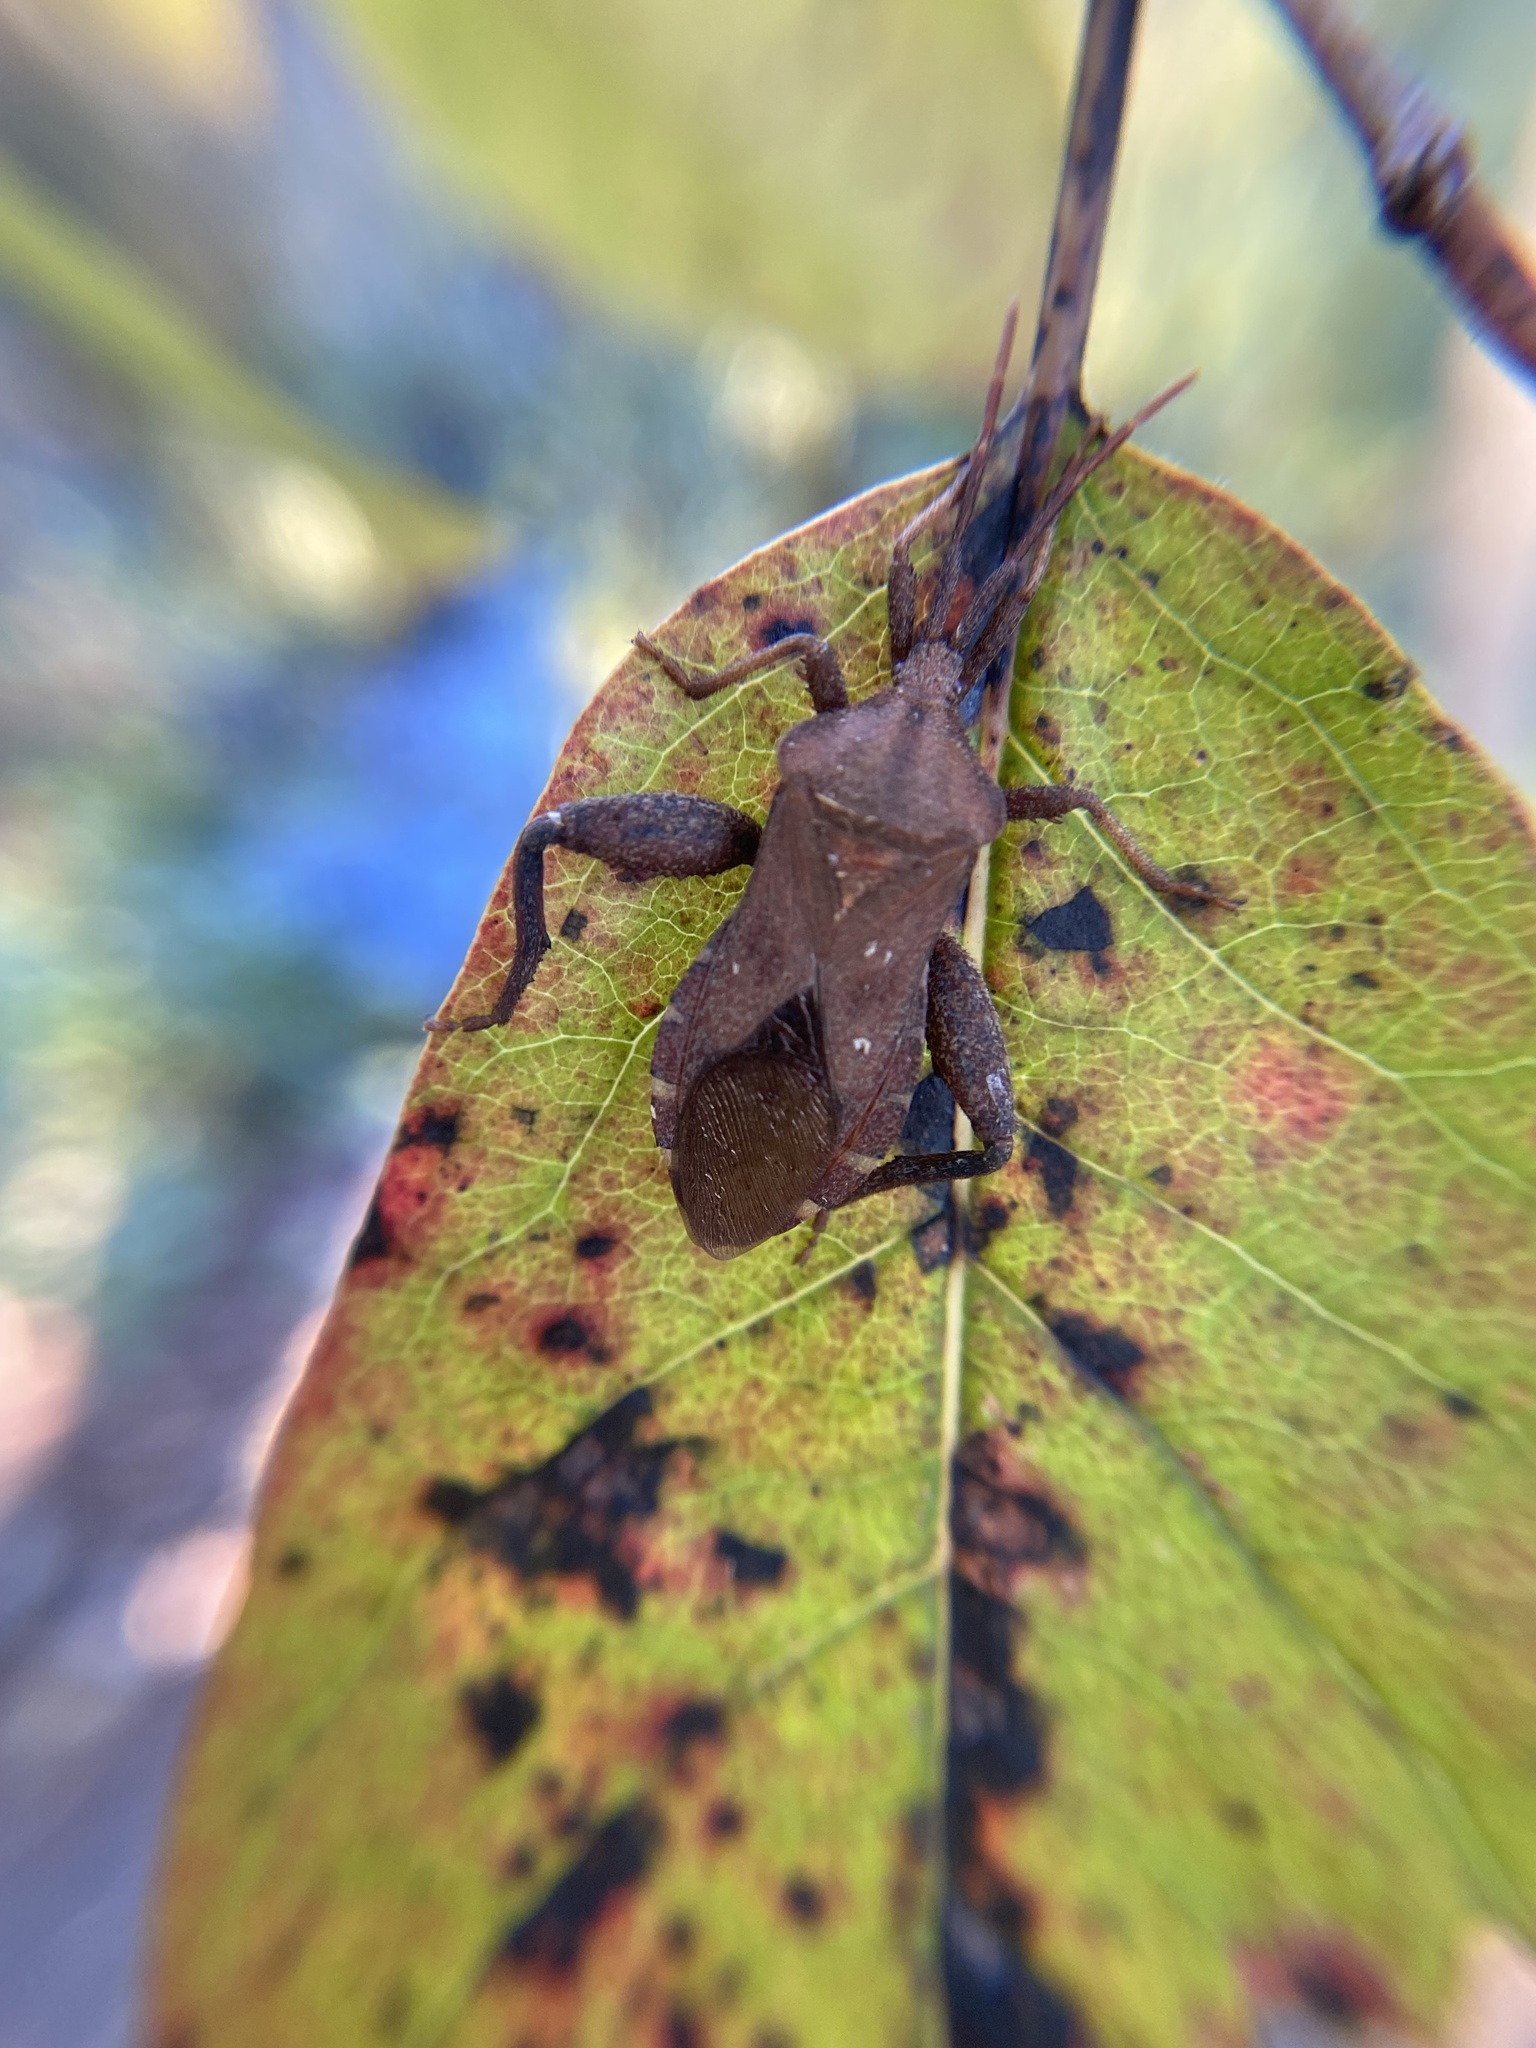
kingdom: Animalia
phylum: Arthropoda
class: Insecta
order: Hemiptera
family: Coreidae
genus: Piezogaster
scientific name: Piezogaster calcarator
